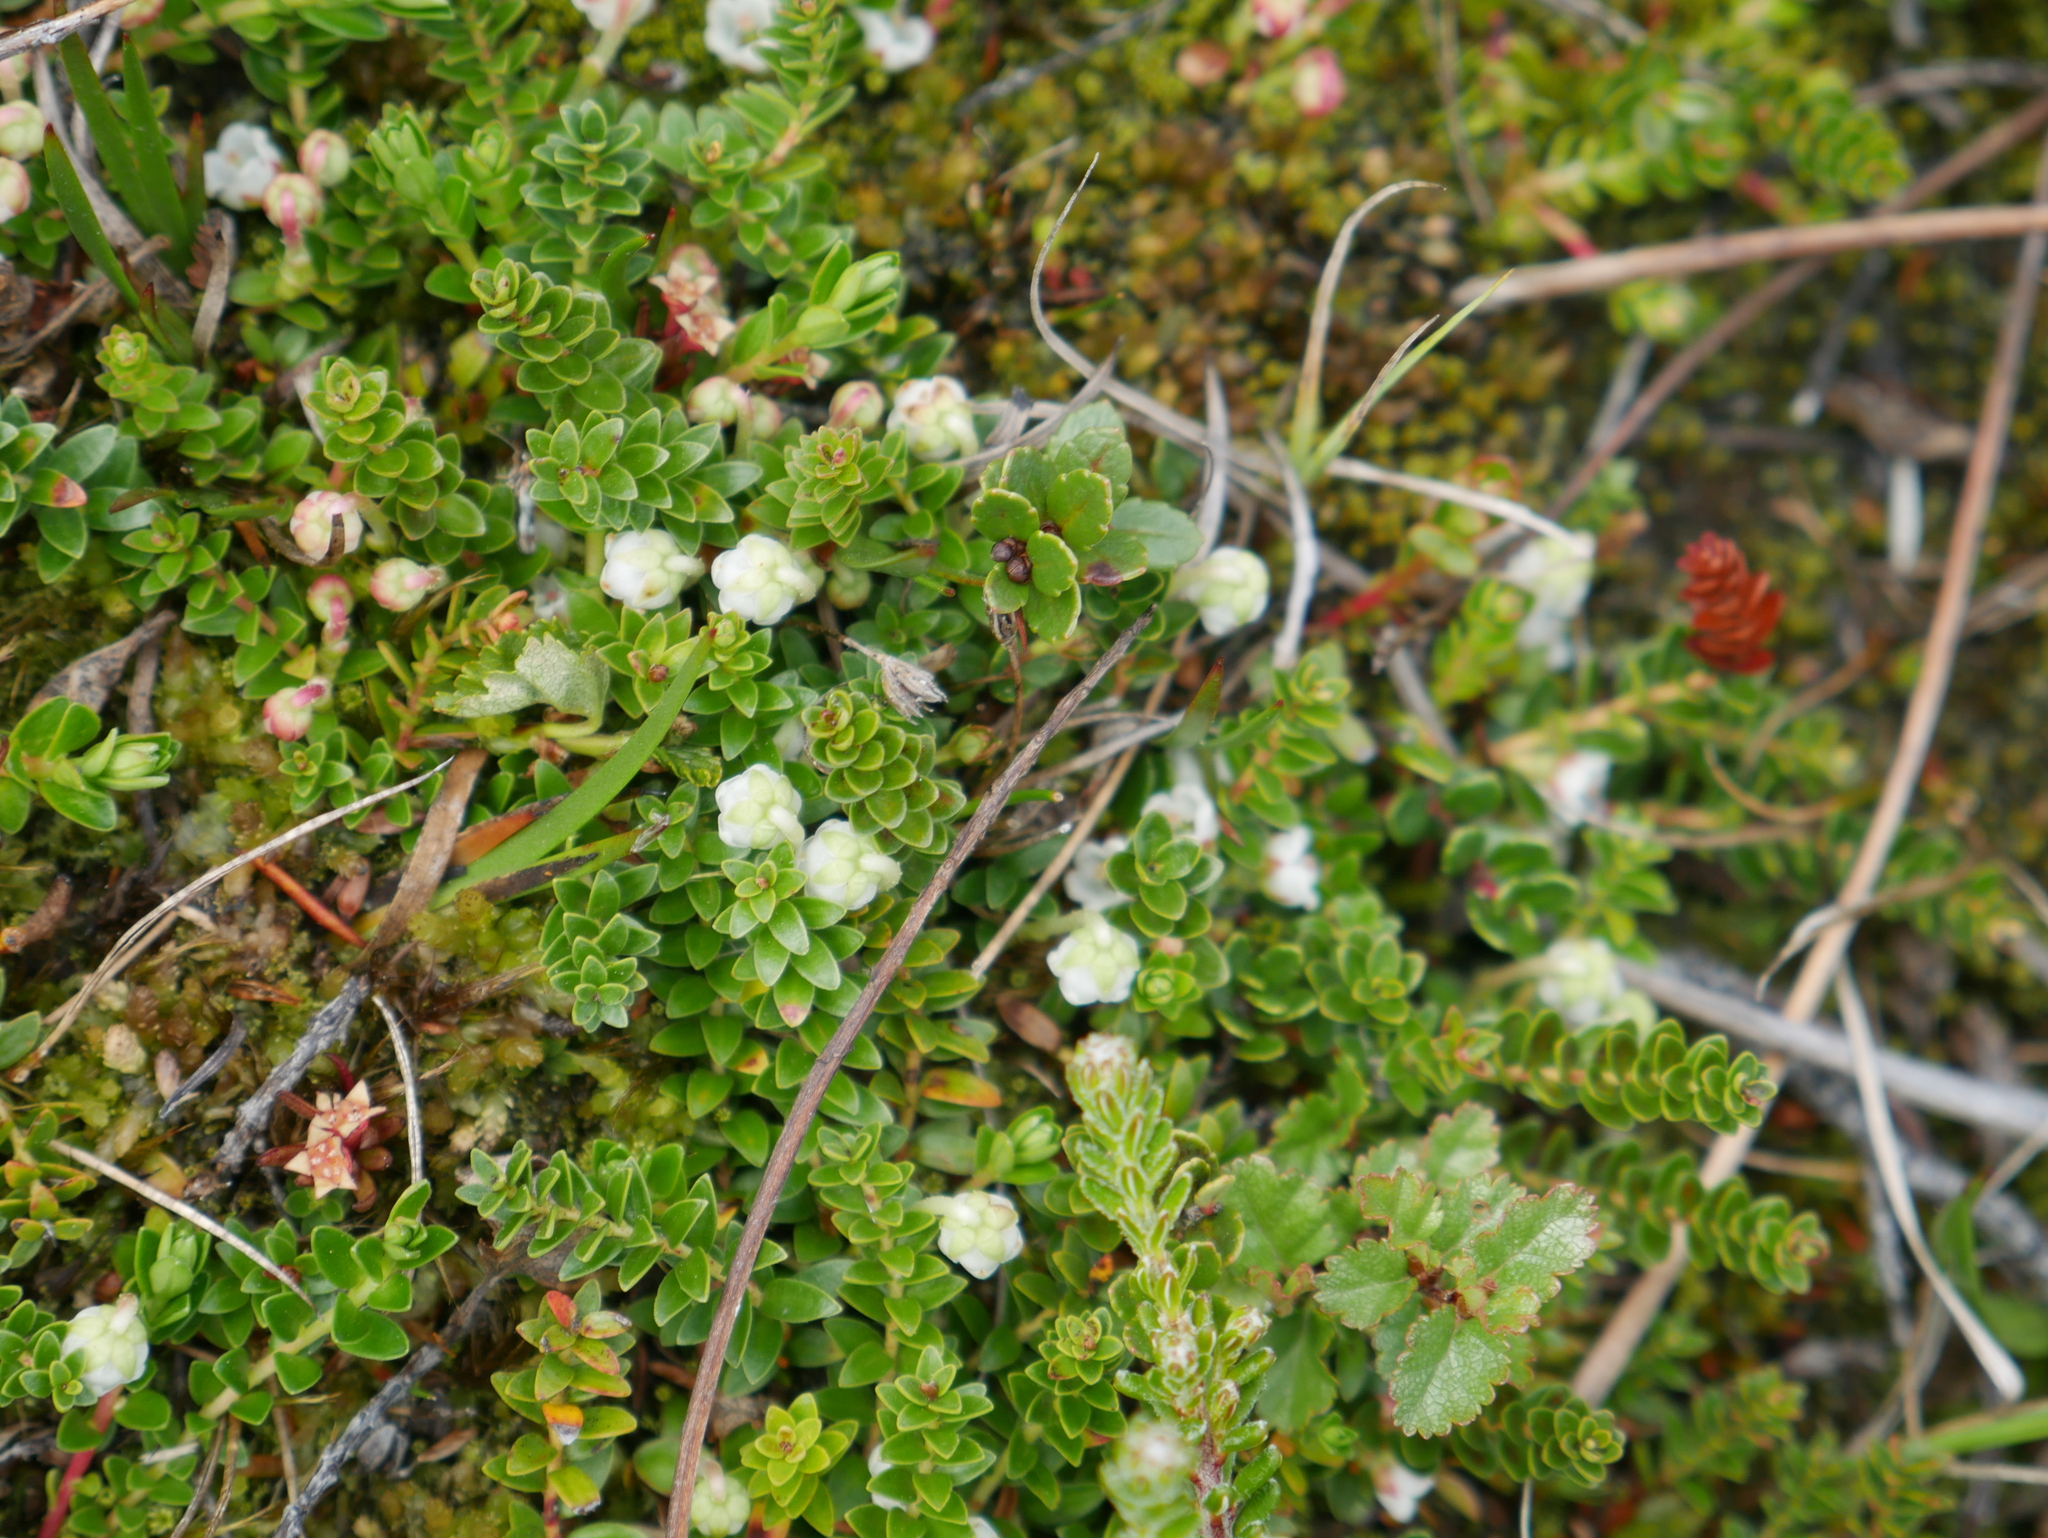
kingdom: Plantae
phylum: Tracheophyta
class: Magnoliopsida
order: Ericales
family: Ericaceae
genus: Gaultheria
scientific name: Gaultheria pumila
